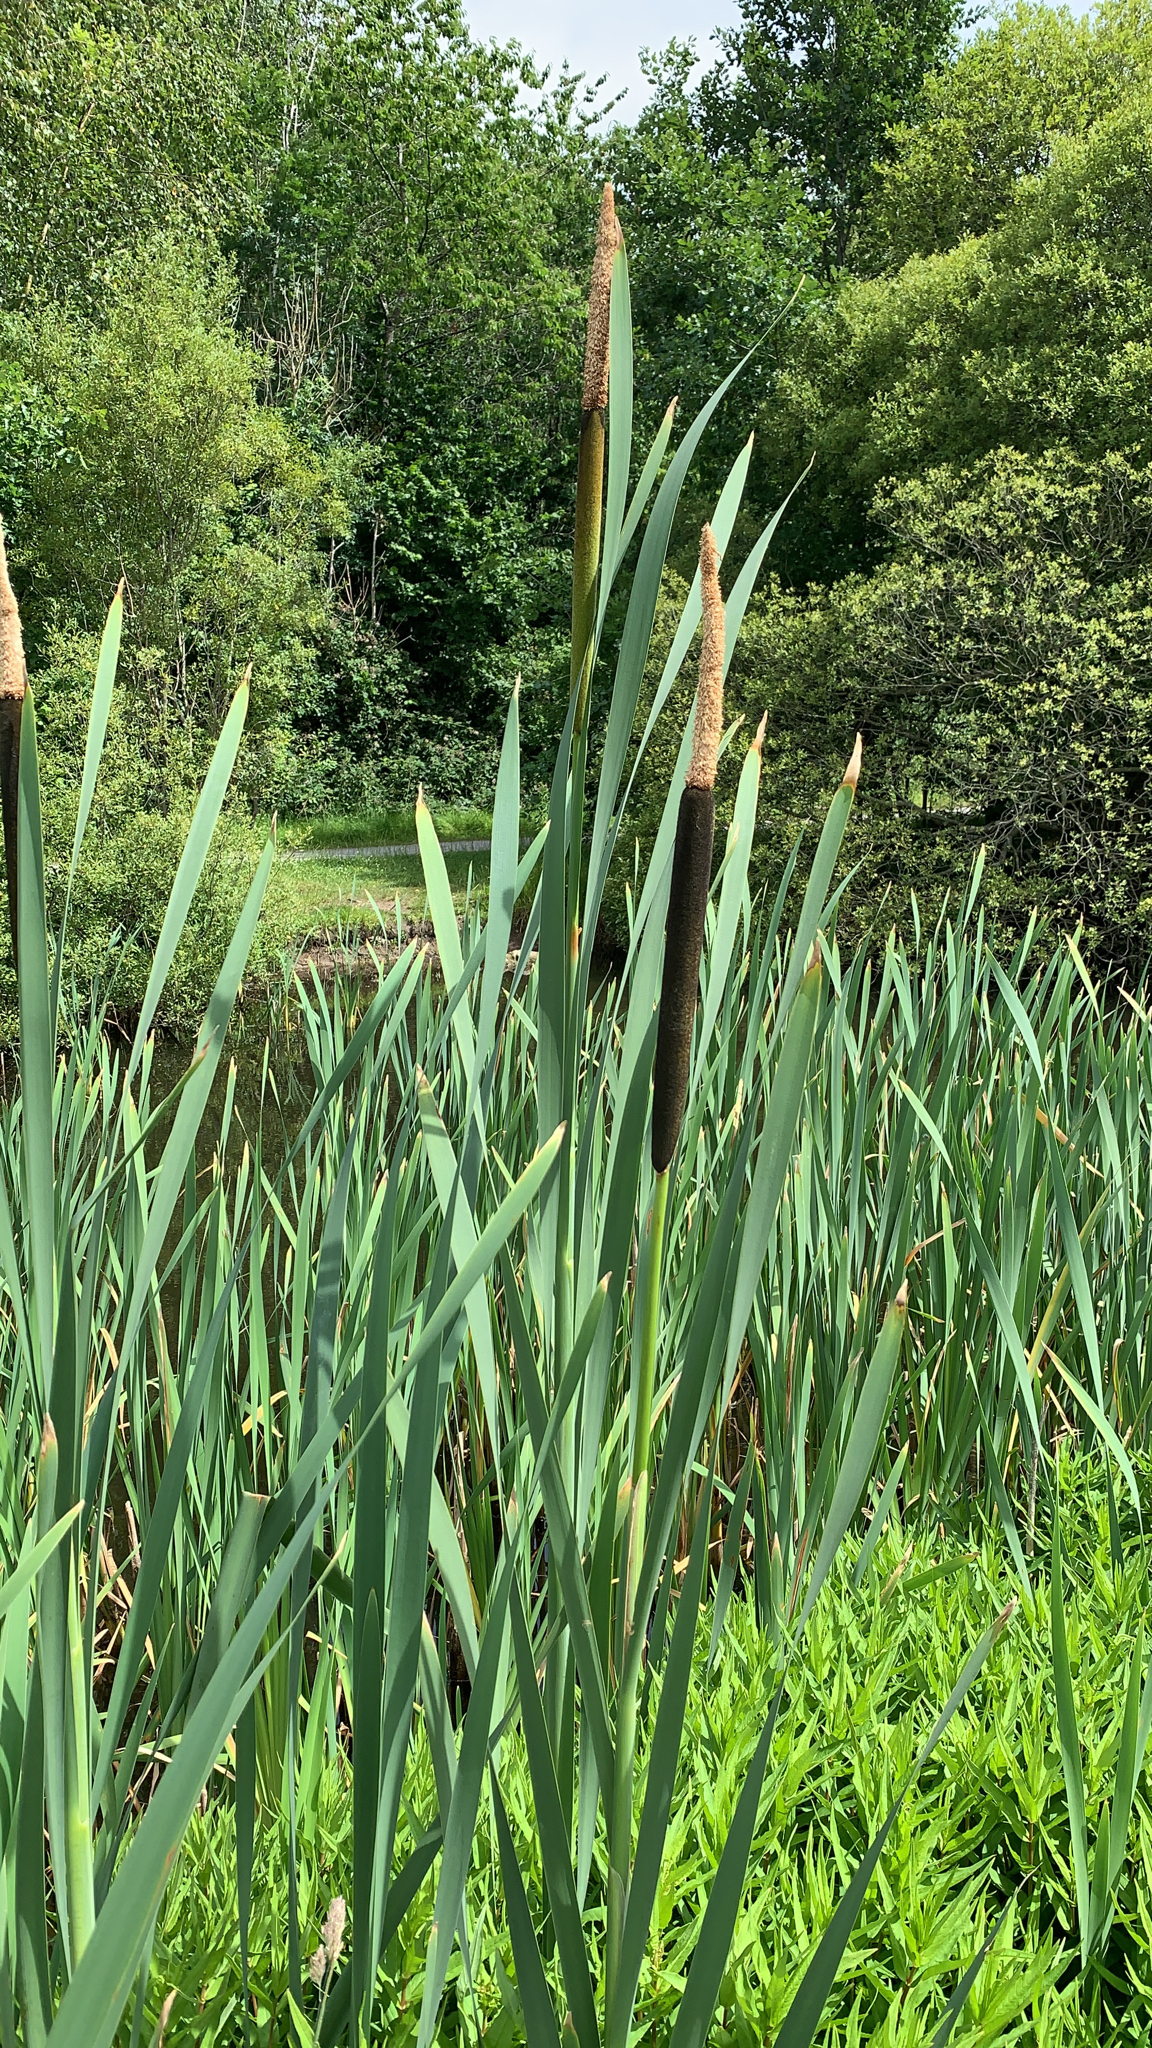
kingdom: Plantae
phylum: Tracheophyta
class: Liliopsida
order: Poales
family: Typhaceae
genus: Typha
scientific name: Typha latifolia
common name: Broadleaf cattail
